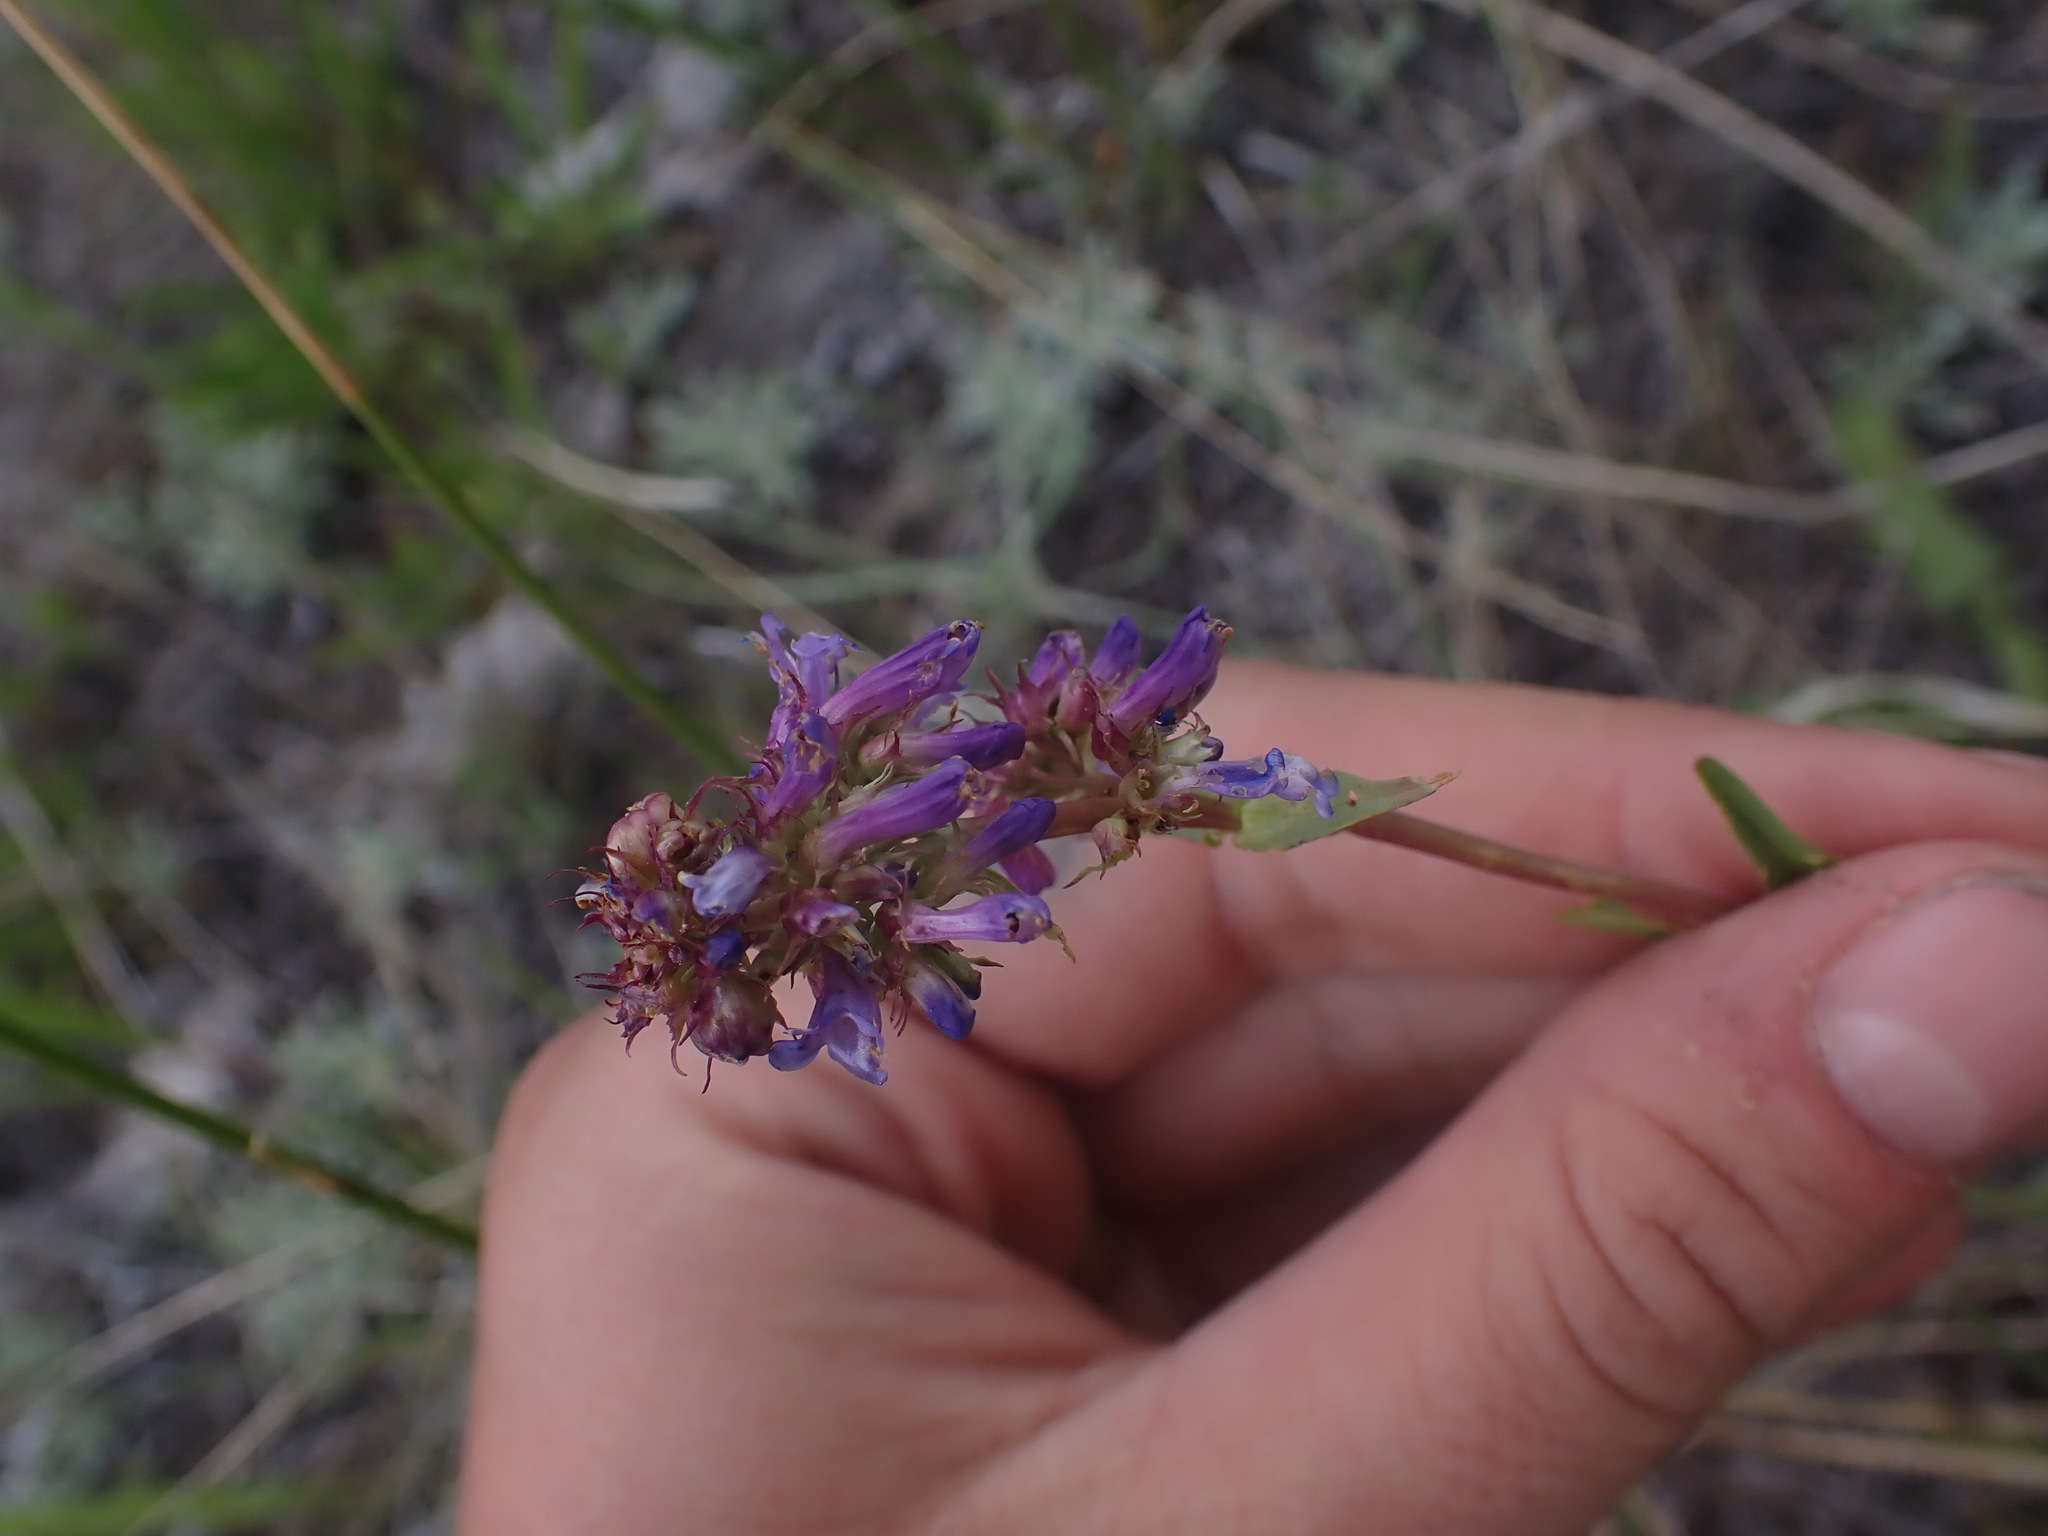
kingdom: Plantae
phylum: Tracheophyta
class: Magnoliopsida
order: Lamiales
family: Plantaginaceae
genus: Penstemon
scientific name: Penstemon procerus
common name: Small-flower penstemon
